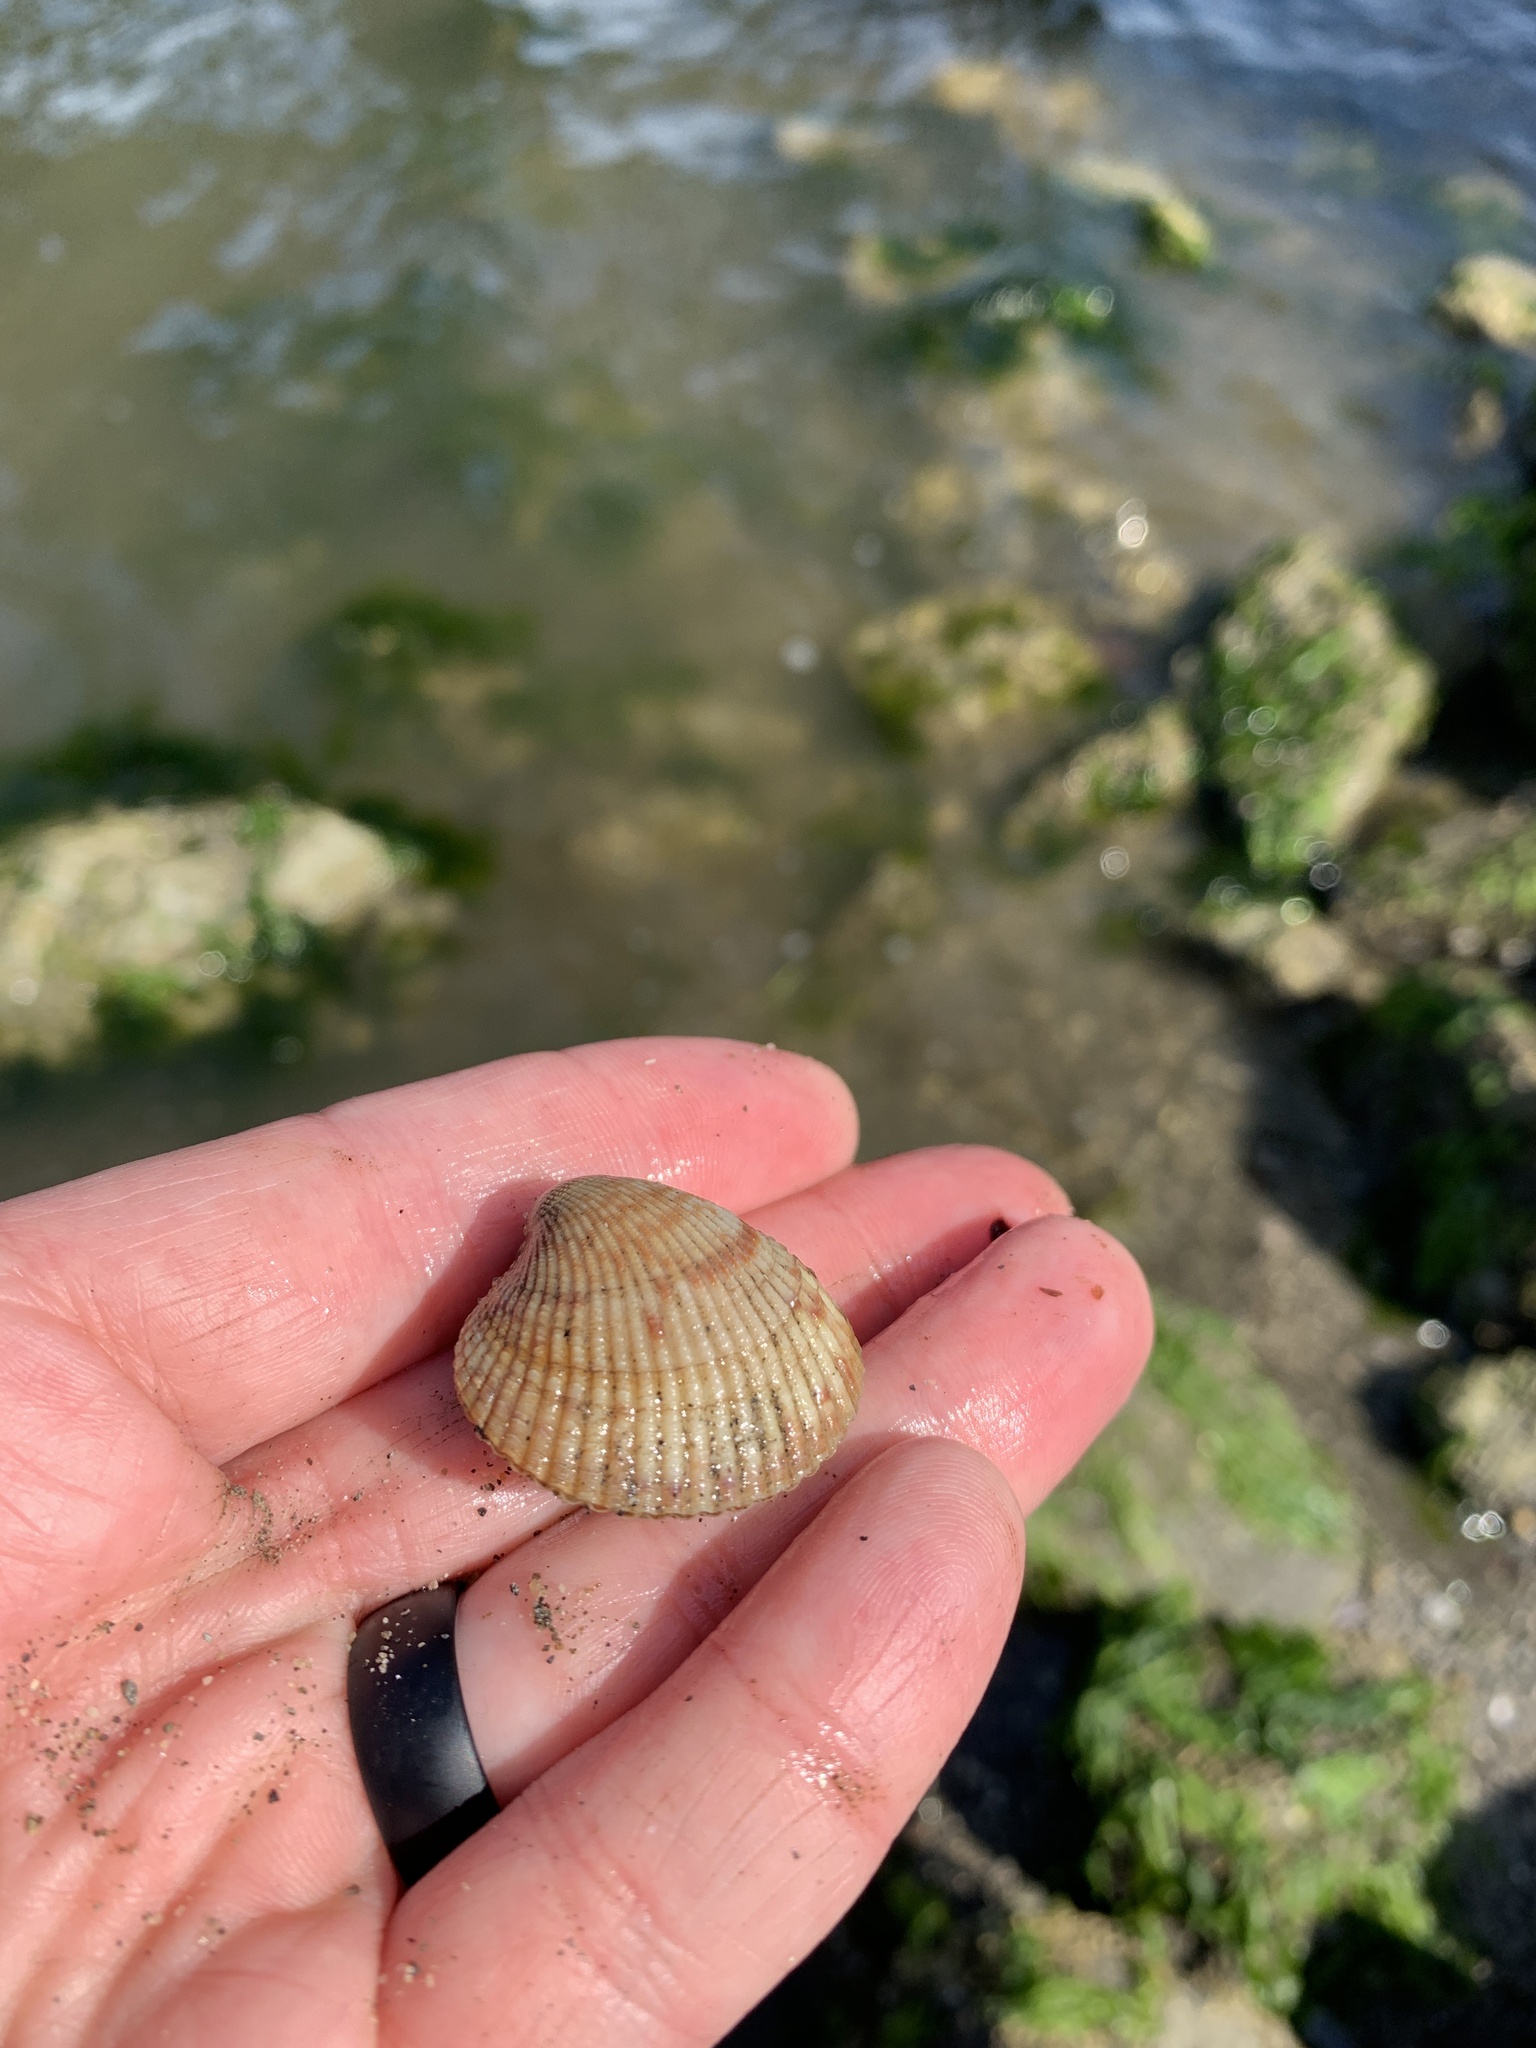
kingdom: Animalia
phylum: Mollusca
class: Bivalvia
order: Cardiida
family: Cardiidae
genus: Clinocardium
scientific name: Clinocardium nuttallii
